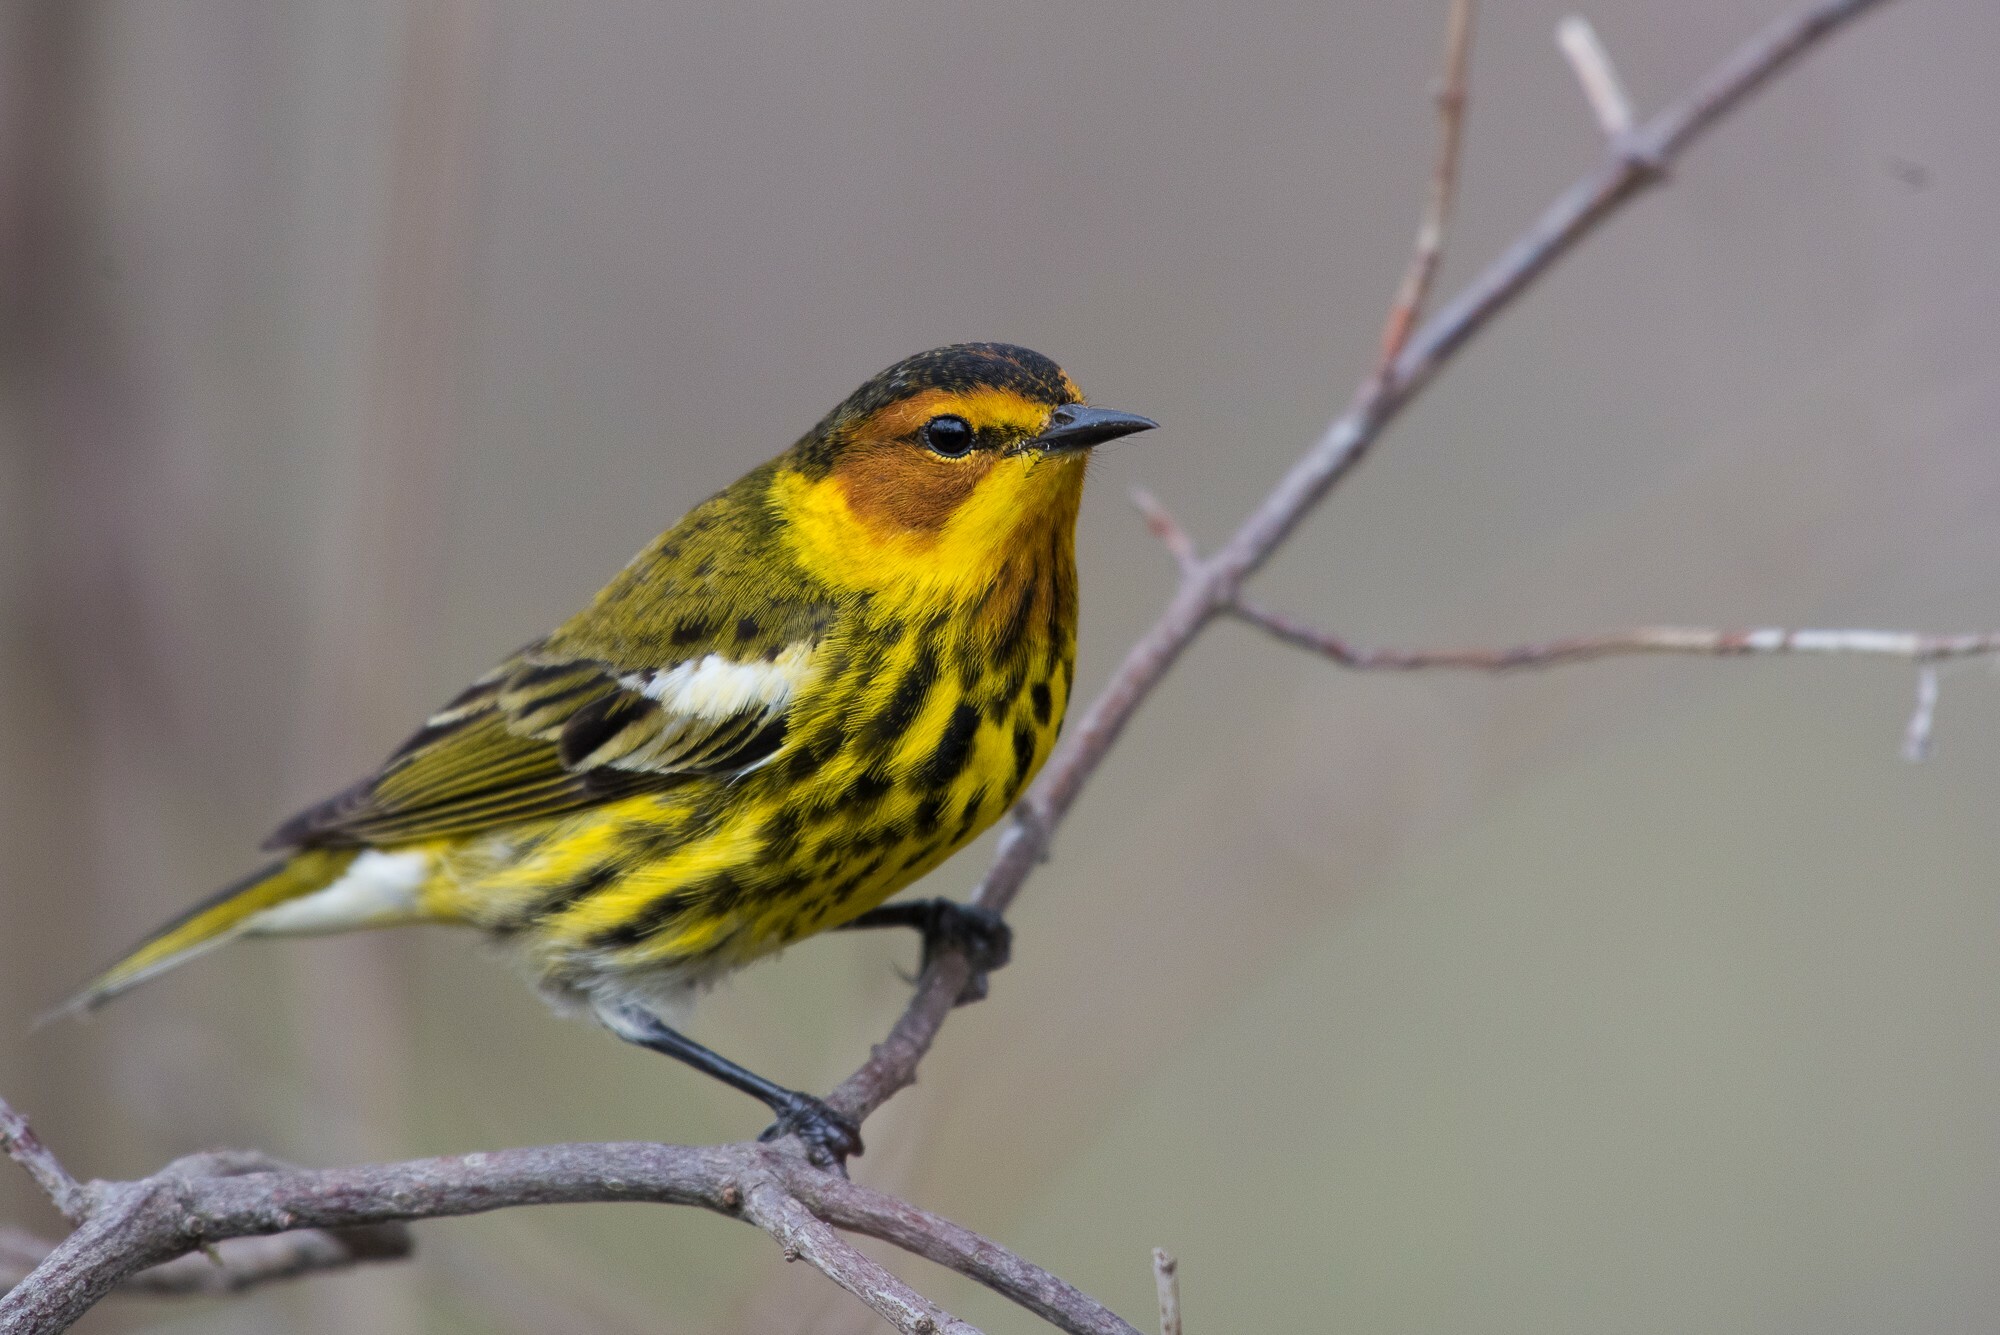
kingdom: Animalia
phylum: Chordata
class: Aves
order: Passeriformes
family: Parulidae
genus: Setophaga
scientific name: Setophaga tigrina
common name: Cape may warbler
